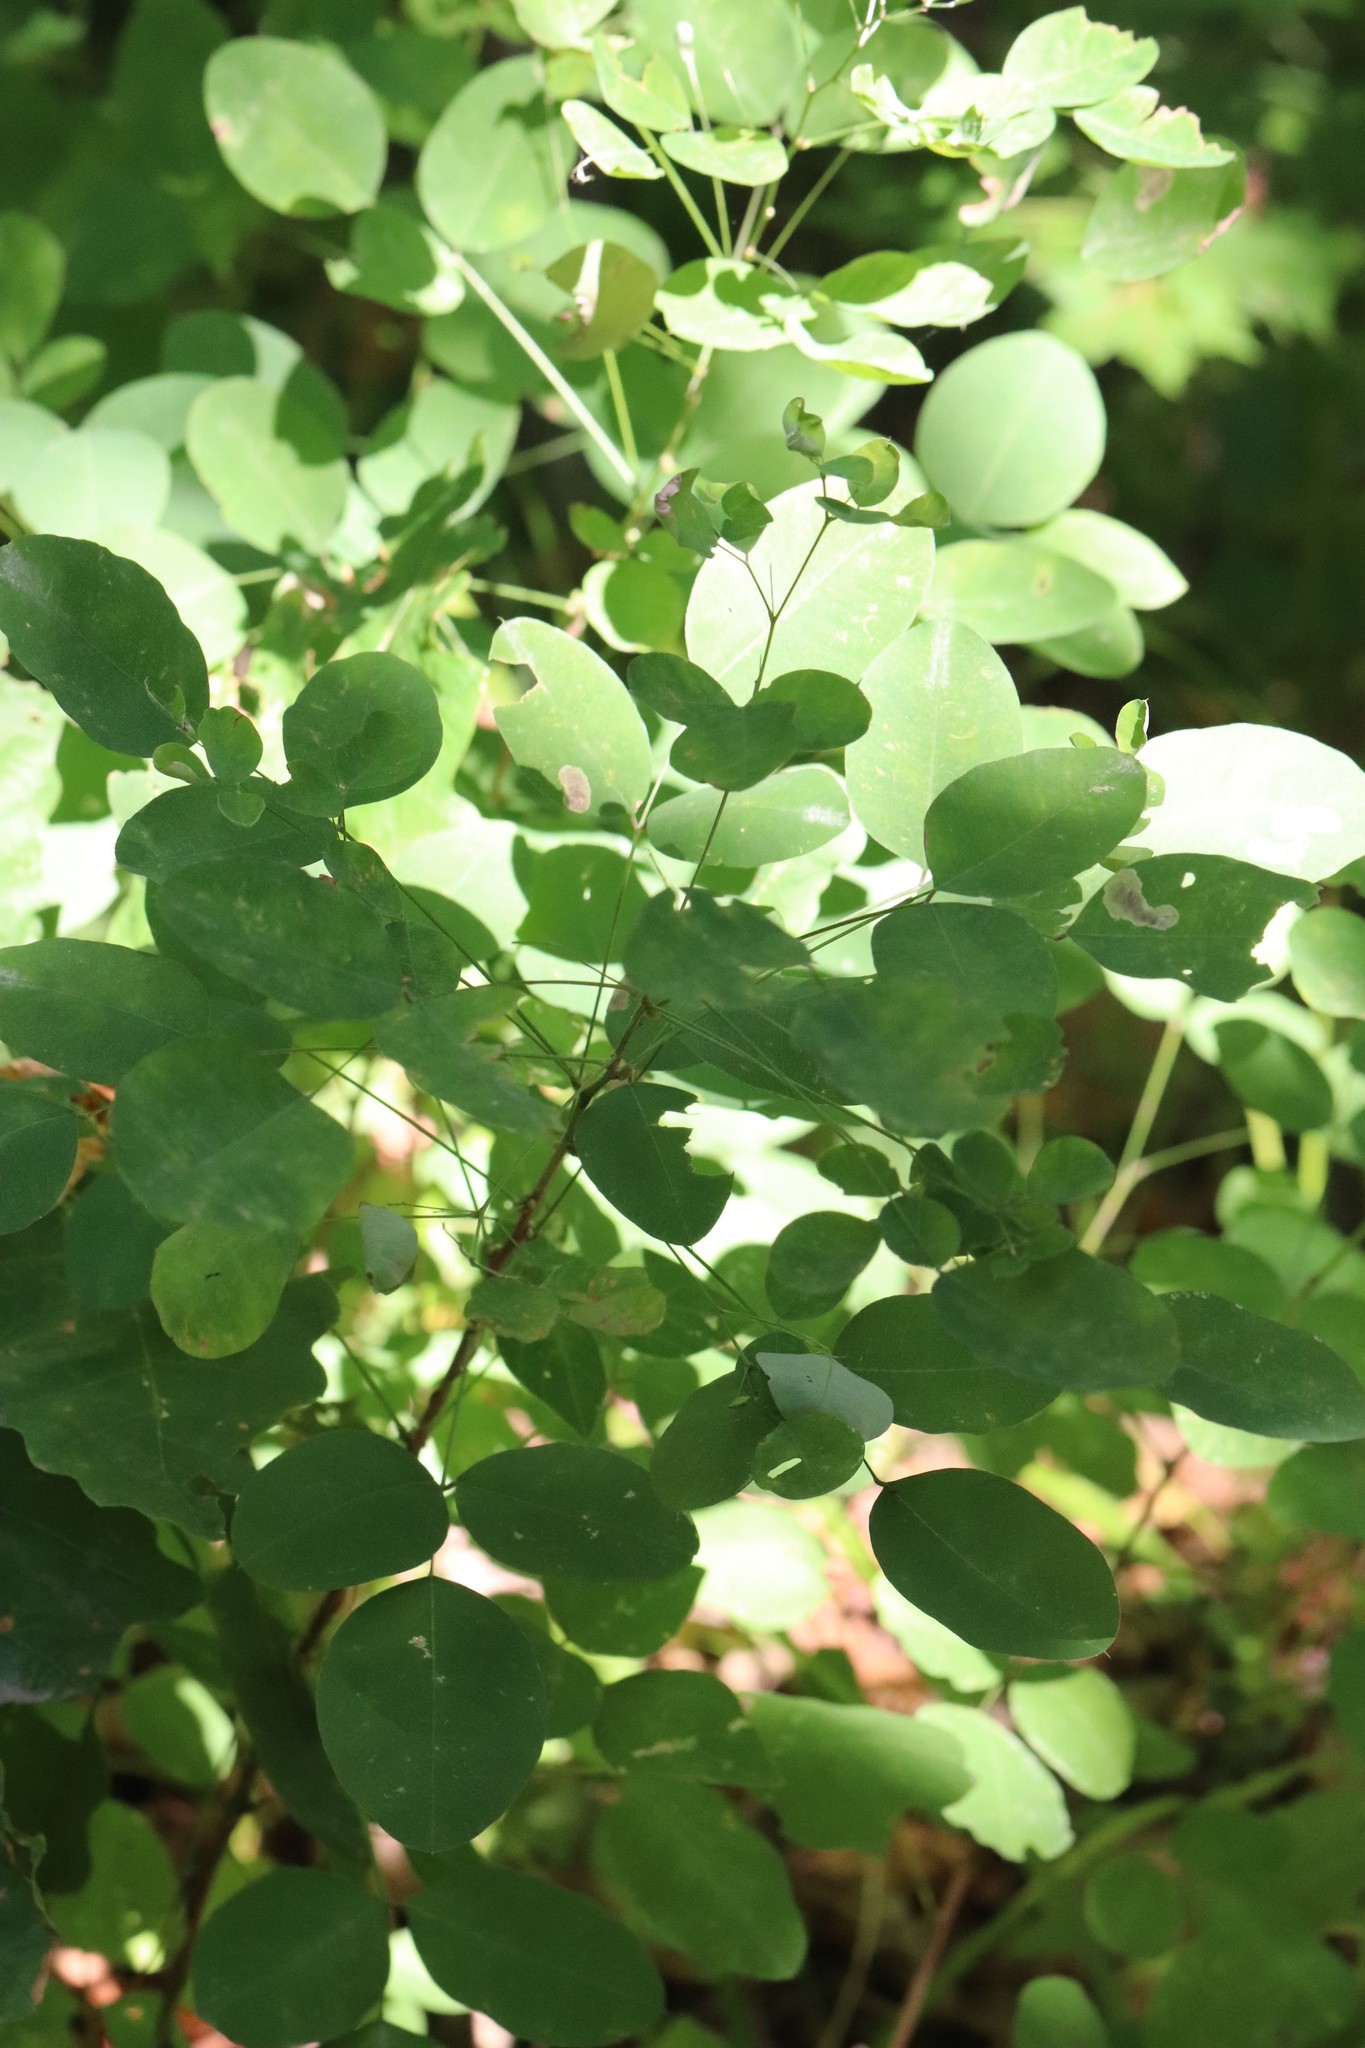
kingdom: Plantae
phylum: Tracheophyta
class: Magnoliopsida
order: Fabales
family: Fabaceae
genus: Lespedeza
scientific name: Lespedeza bicolor
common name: Shrub lespedeza
